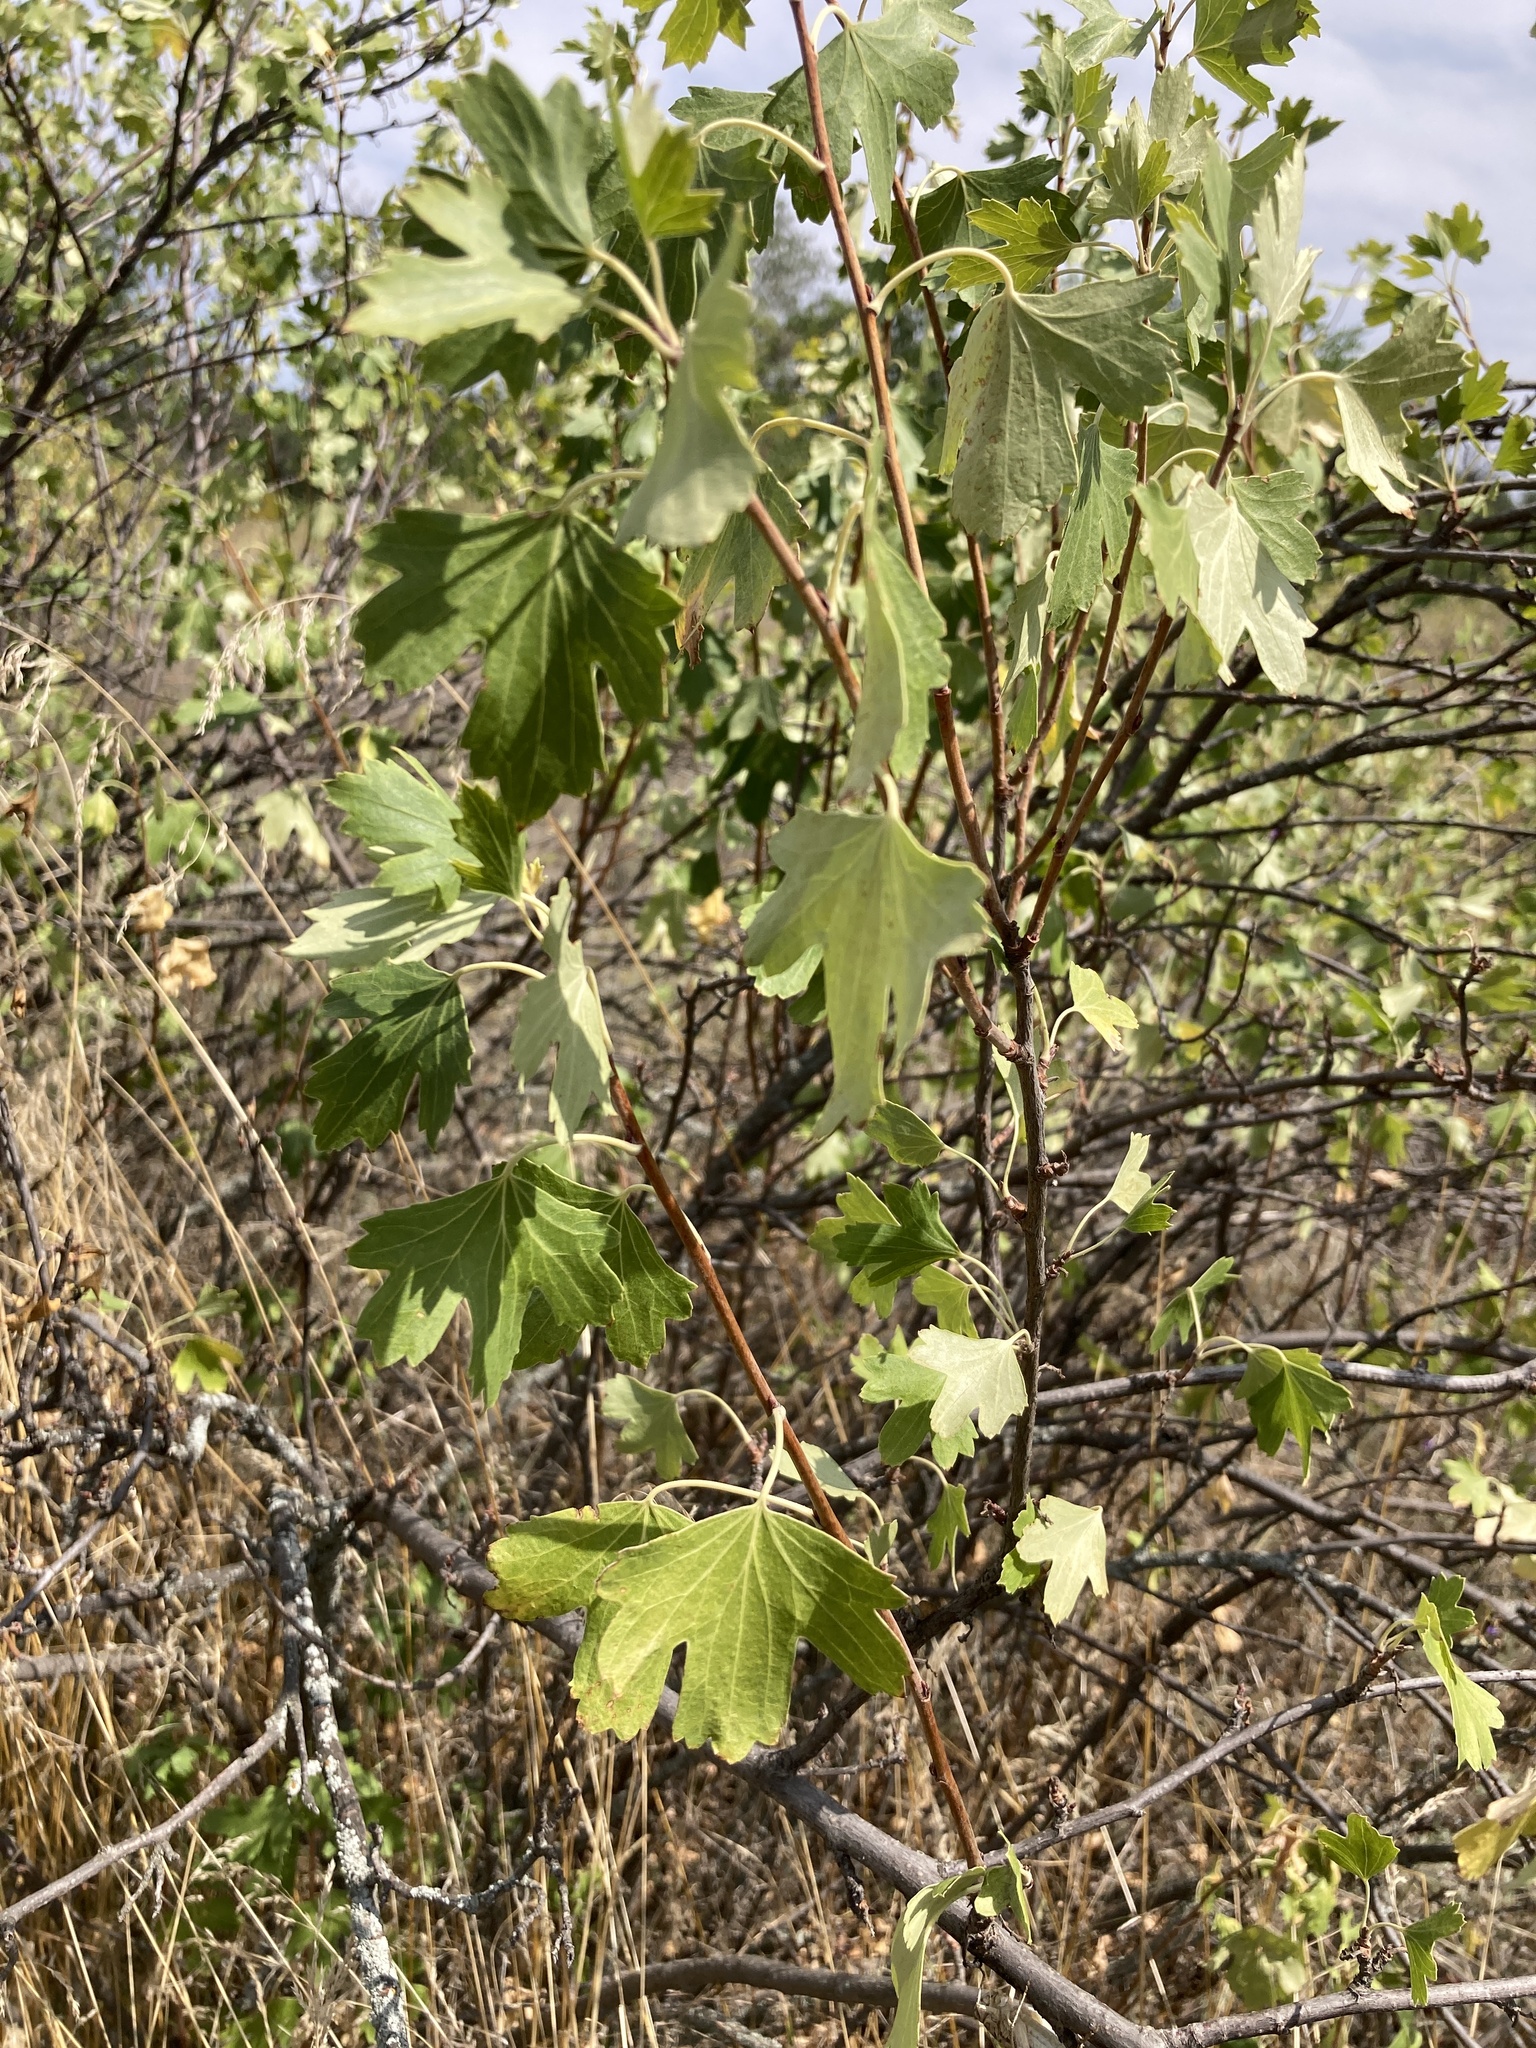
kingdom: Plantae
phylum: Tracheophyta
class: Magnoliopsida
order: Saxifragales
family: Grossulariaceae
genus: Ribes
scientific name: Ribes aureum
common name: Golden currant
